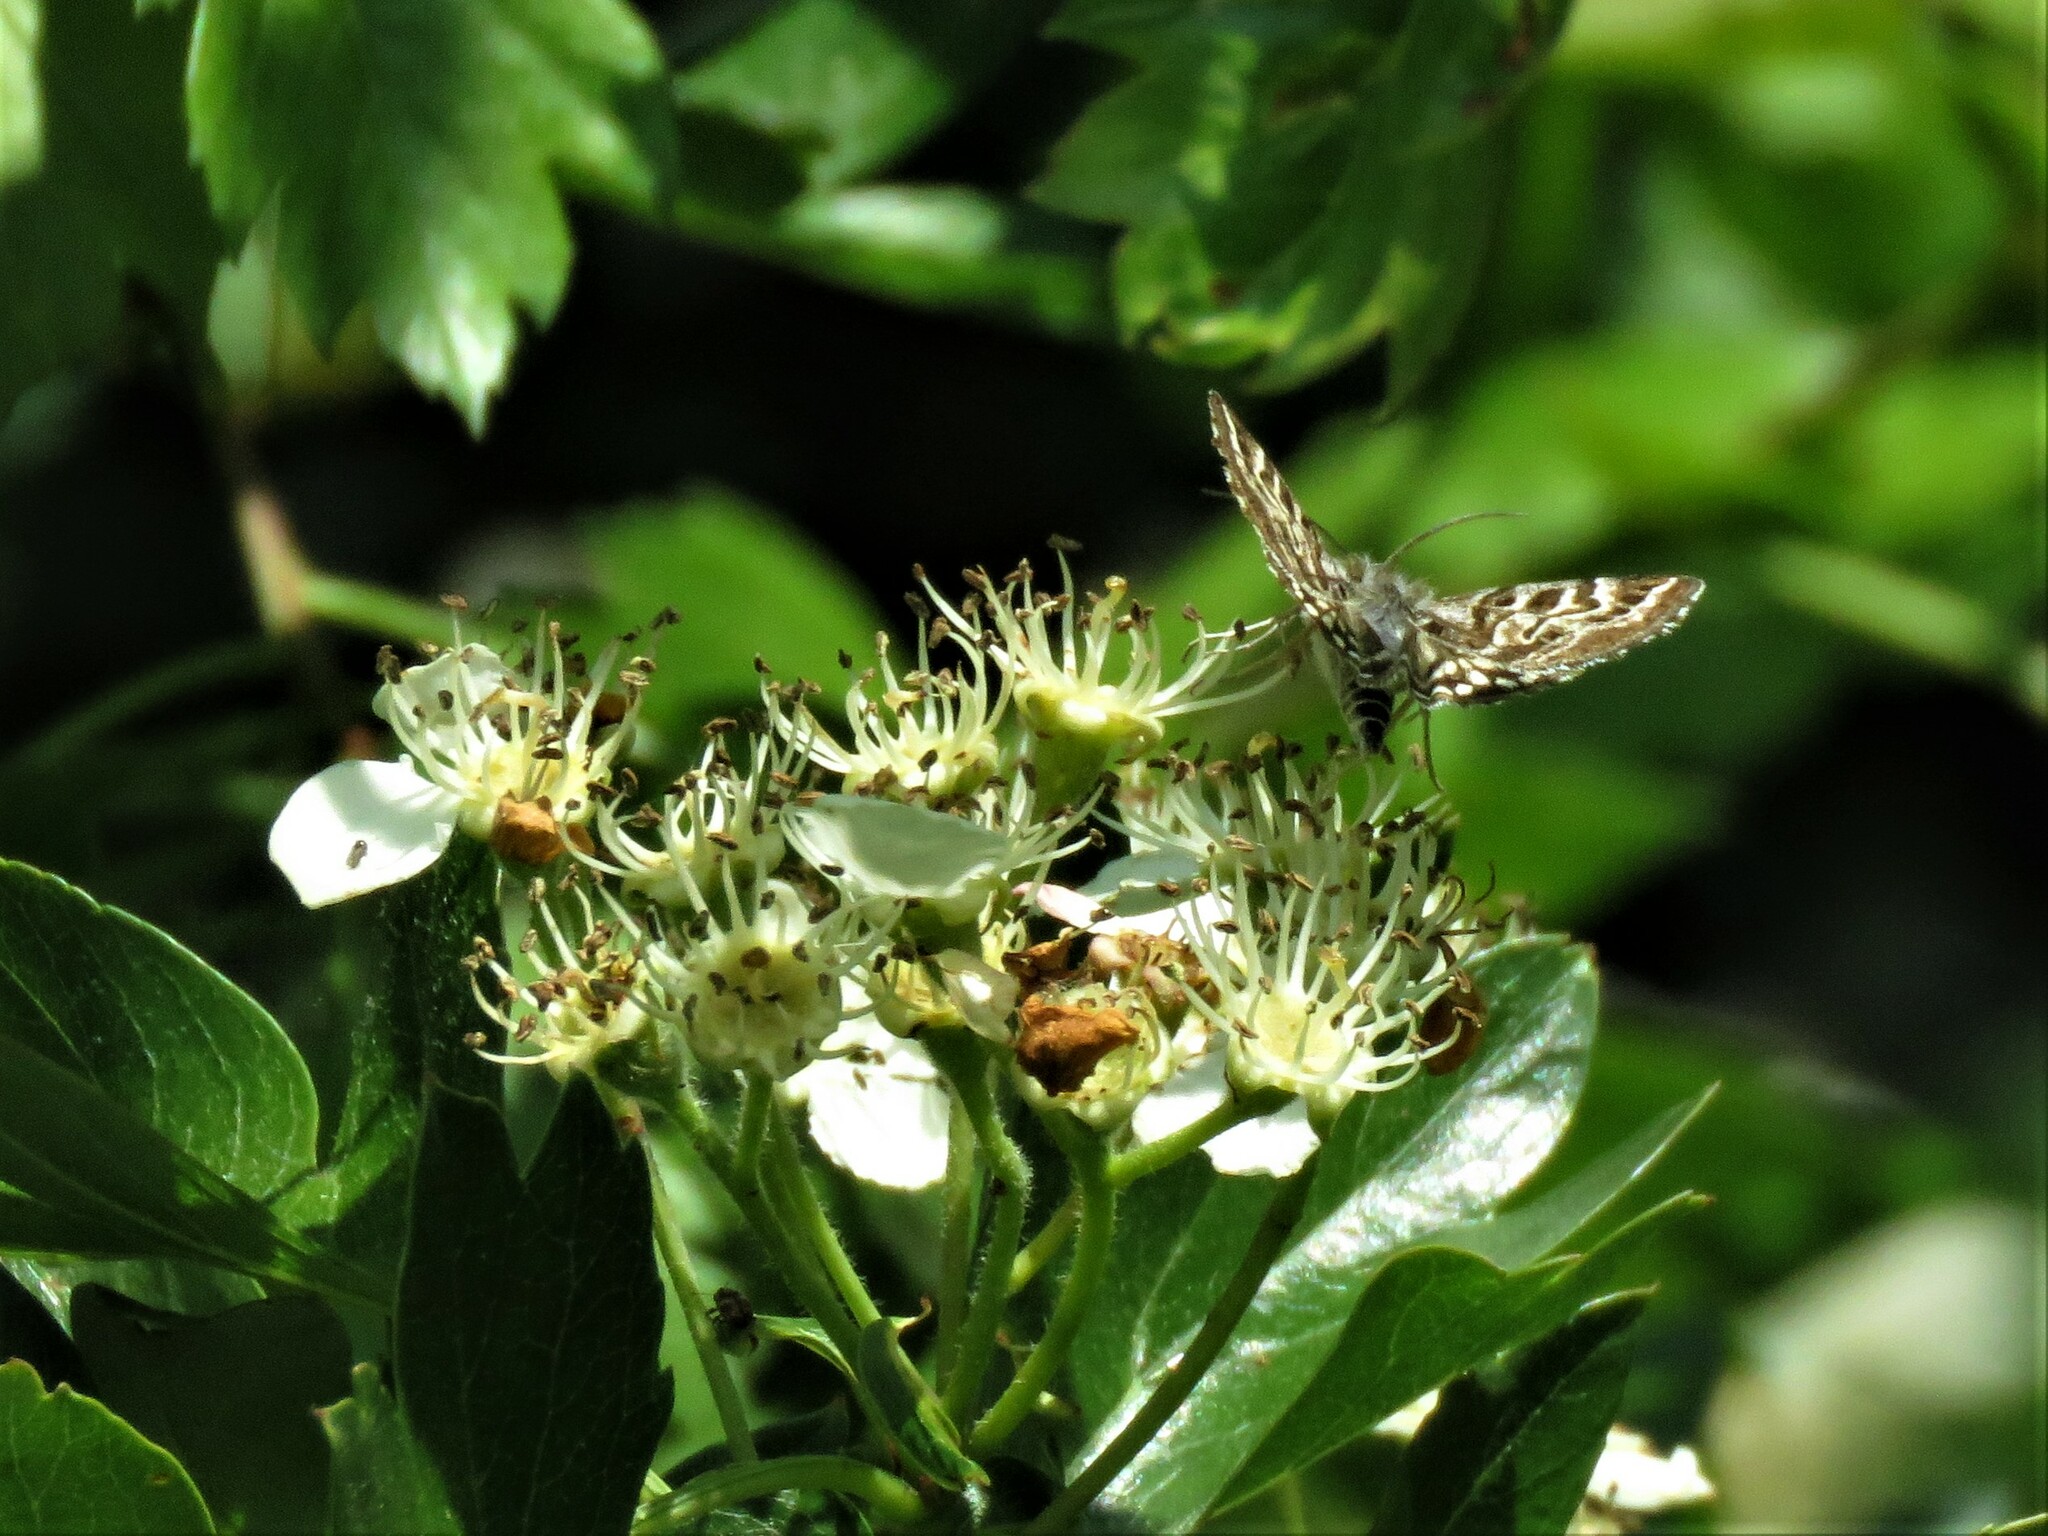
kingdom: Animalia
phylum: Arthropoda
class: Insecta
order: Lepidoptera
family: Erebidae
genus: Callistege
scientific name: Callistege mi
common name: Mother shipton
